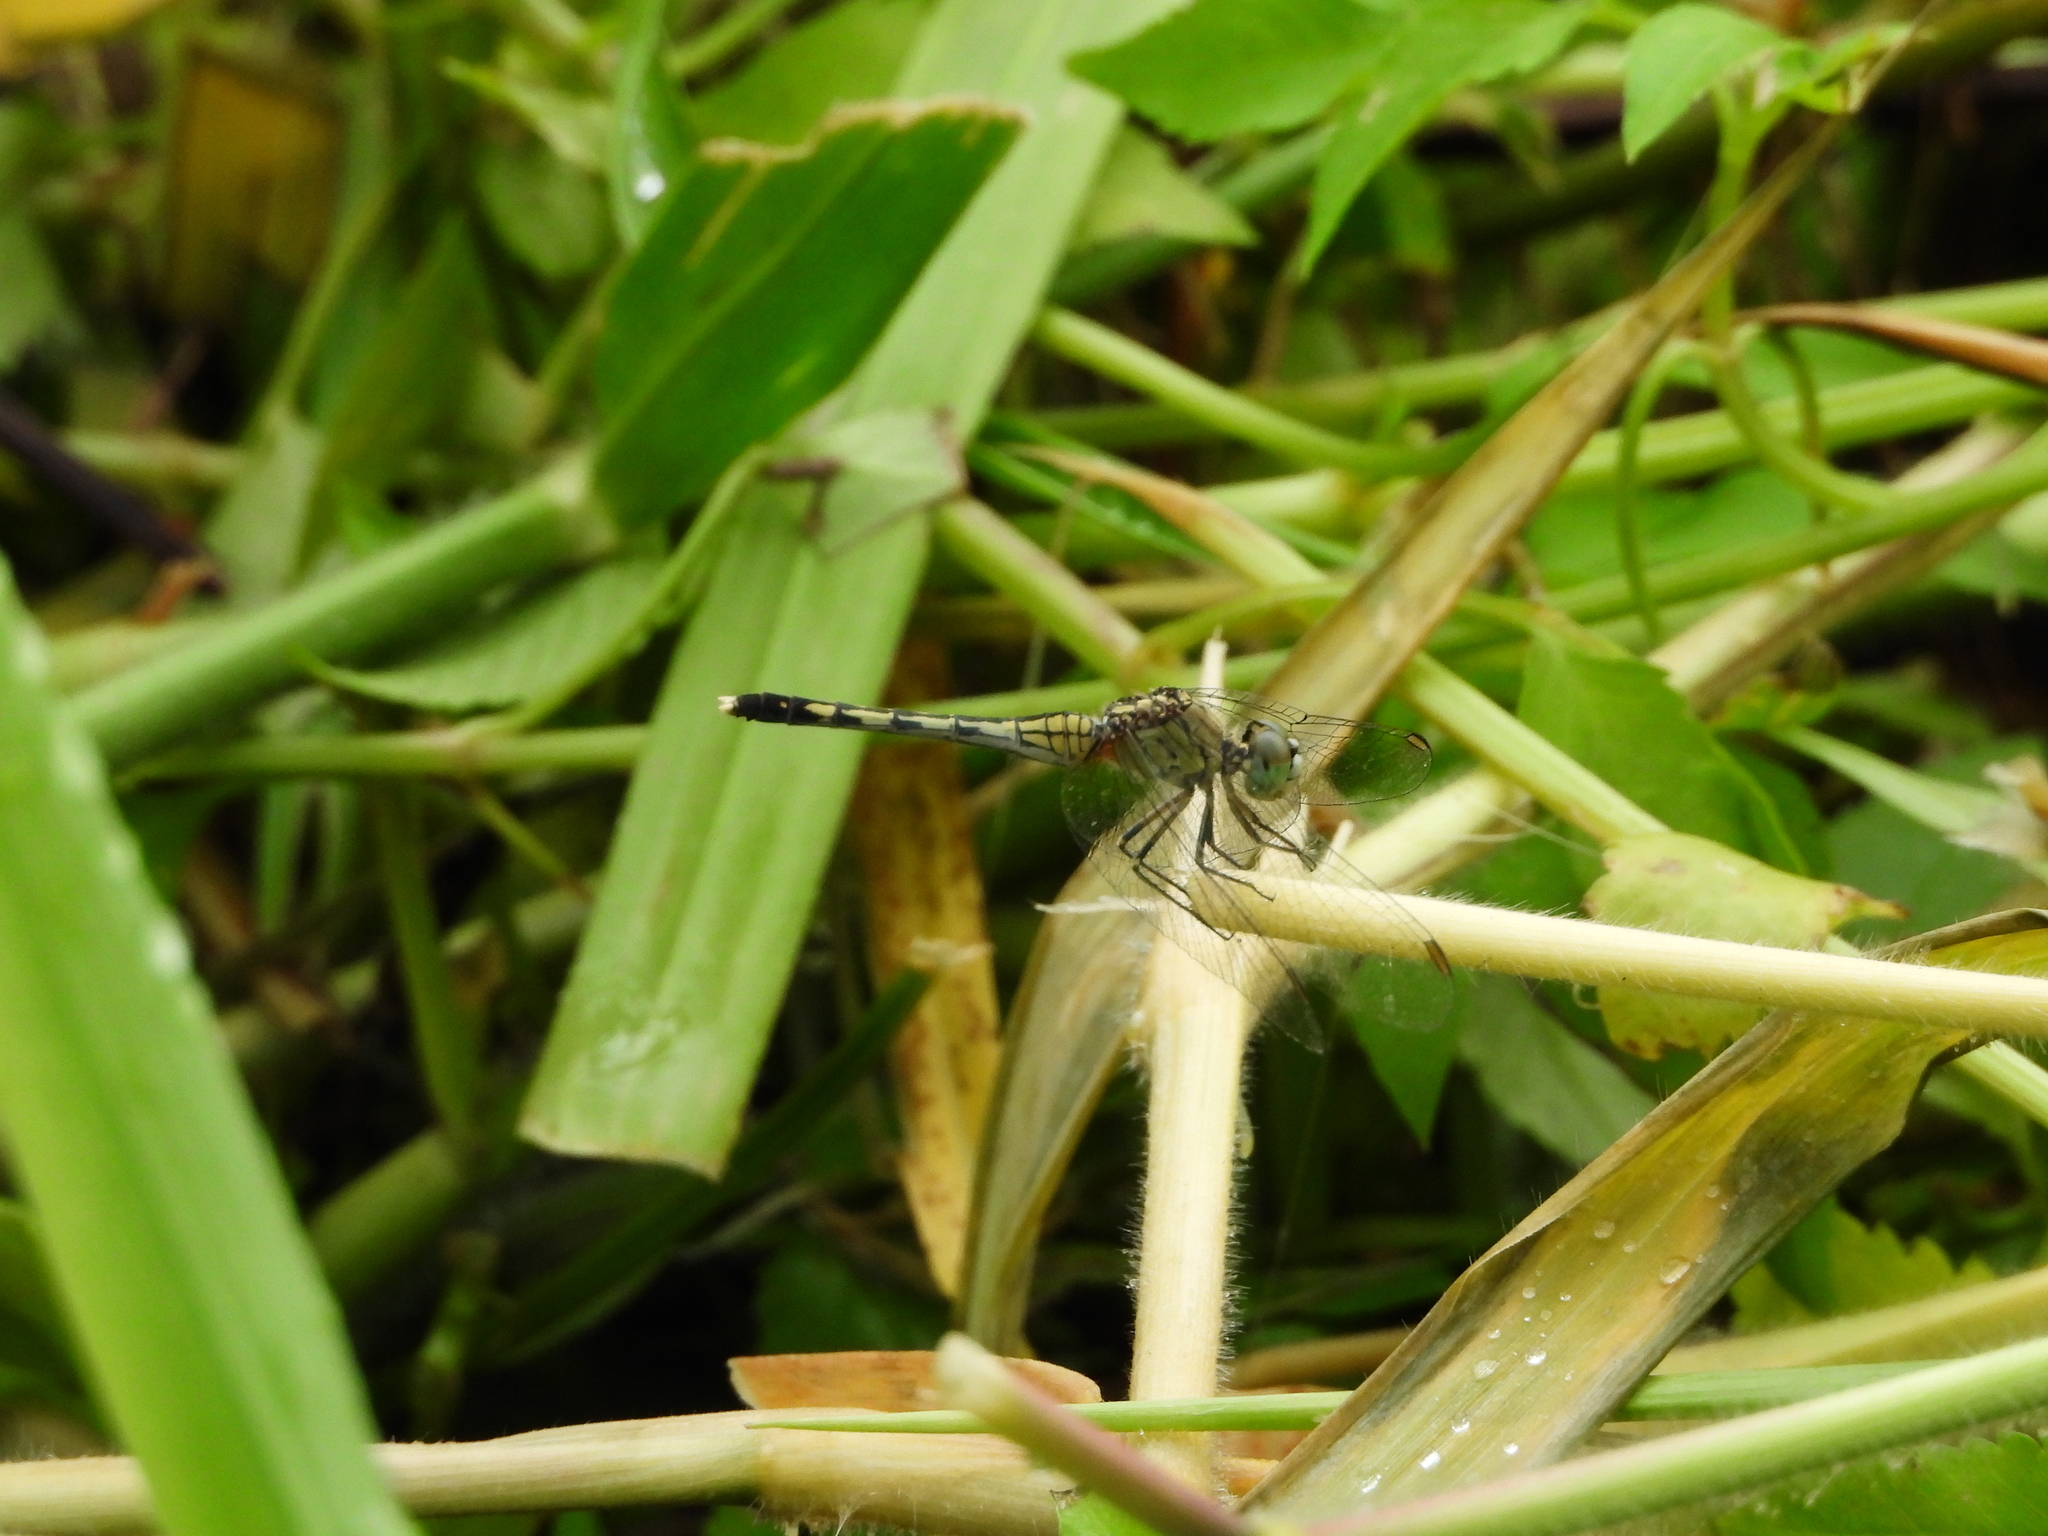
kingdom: Animalia
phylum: Arthropoda
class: Insecta
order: Odonata
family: Libellulidae
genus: Diplacodes
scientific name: Diplacodes trivialis
